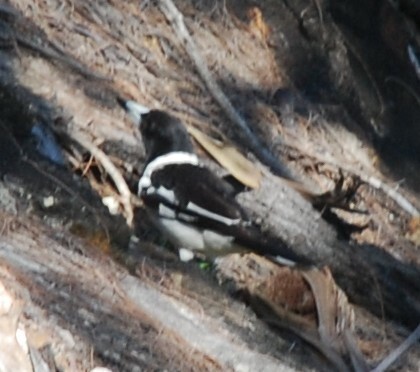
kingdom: Animalia
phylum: Chordata
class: Aves
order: Passeriformes
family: Cracticidae
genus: Cracticus
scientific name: Cracticus nigrogularis
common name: Pied butcherbird
